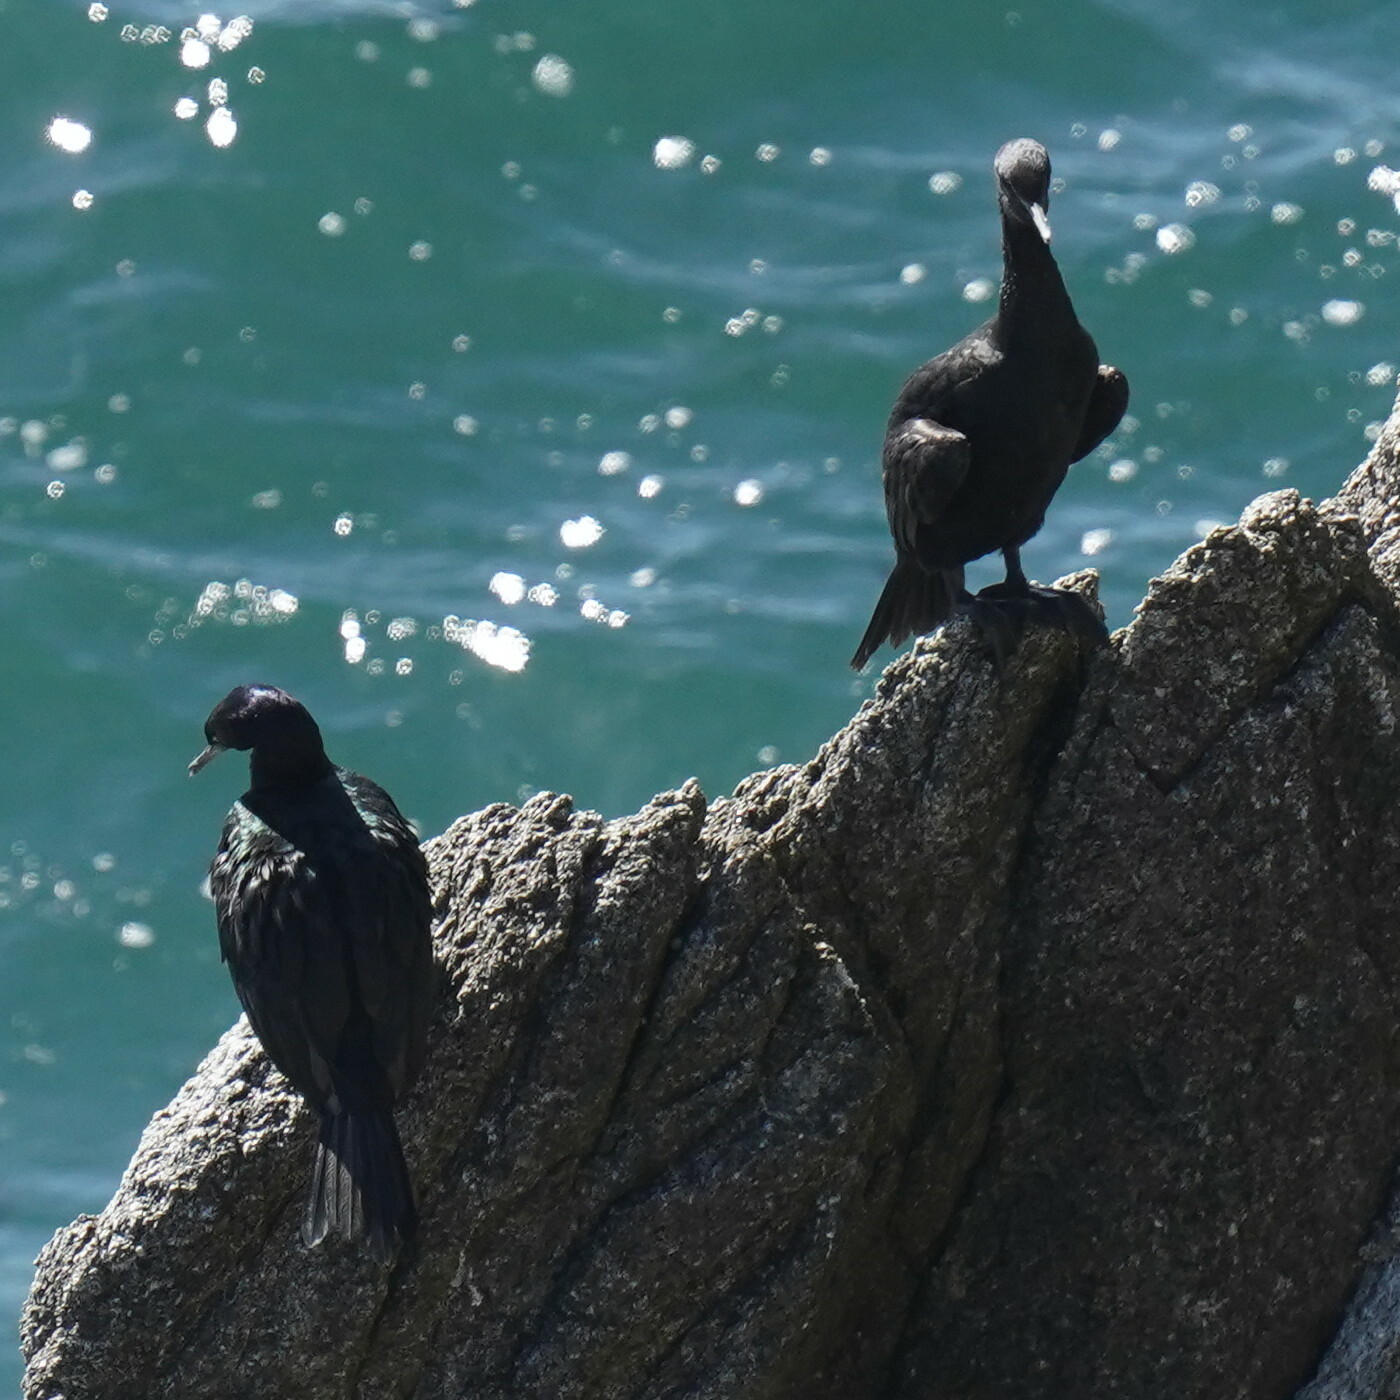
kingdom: Animalia
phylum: Chordata
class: Aves
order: Suliformes
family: Phalacrocoracidae
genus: Phalacrocorax
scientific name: Phalacrocorax pelagicus
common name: Pelagic cormorant
